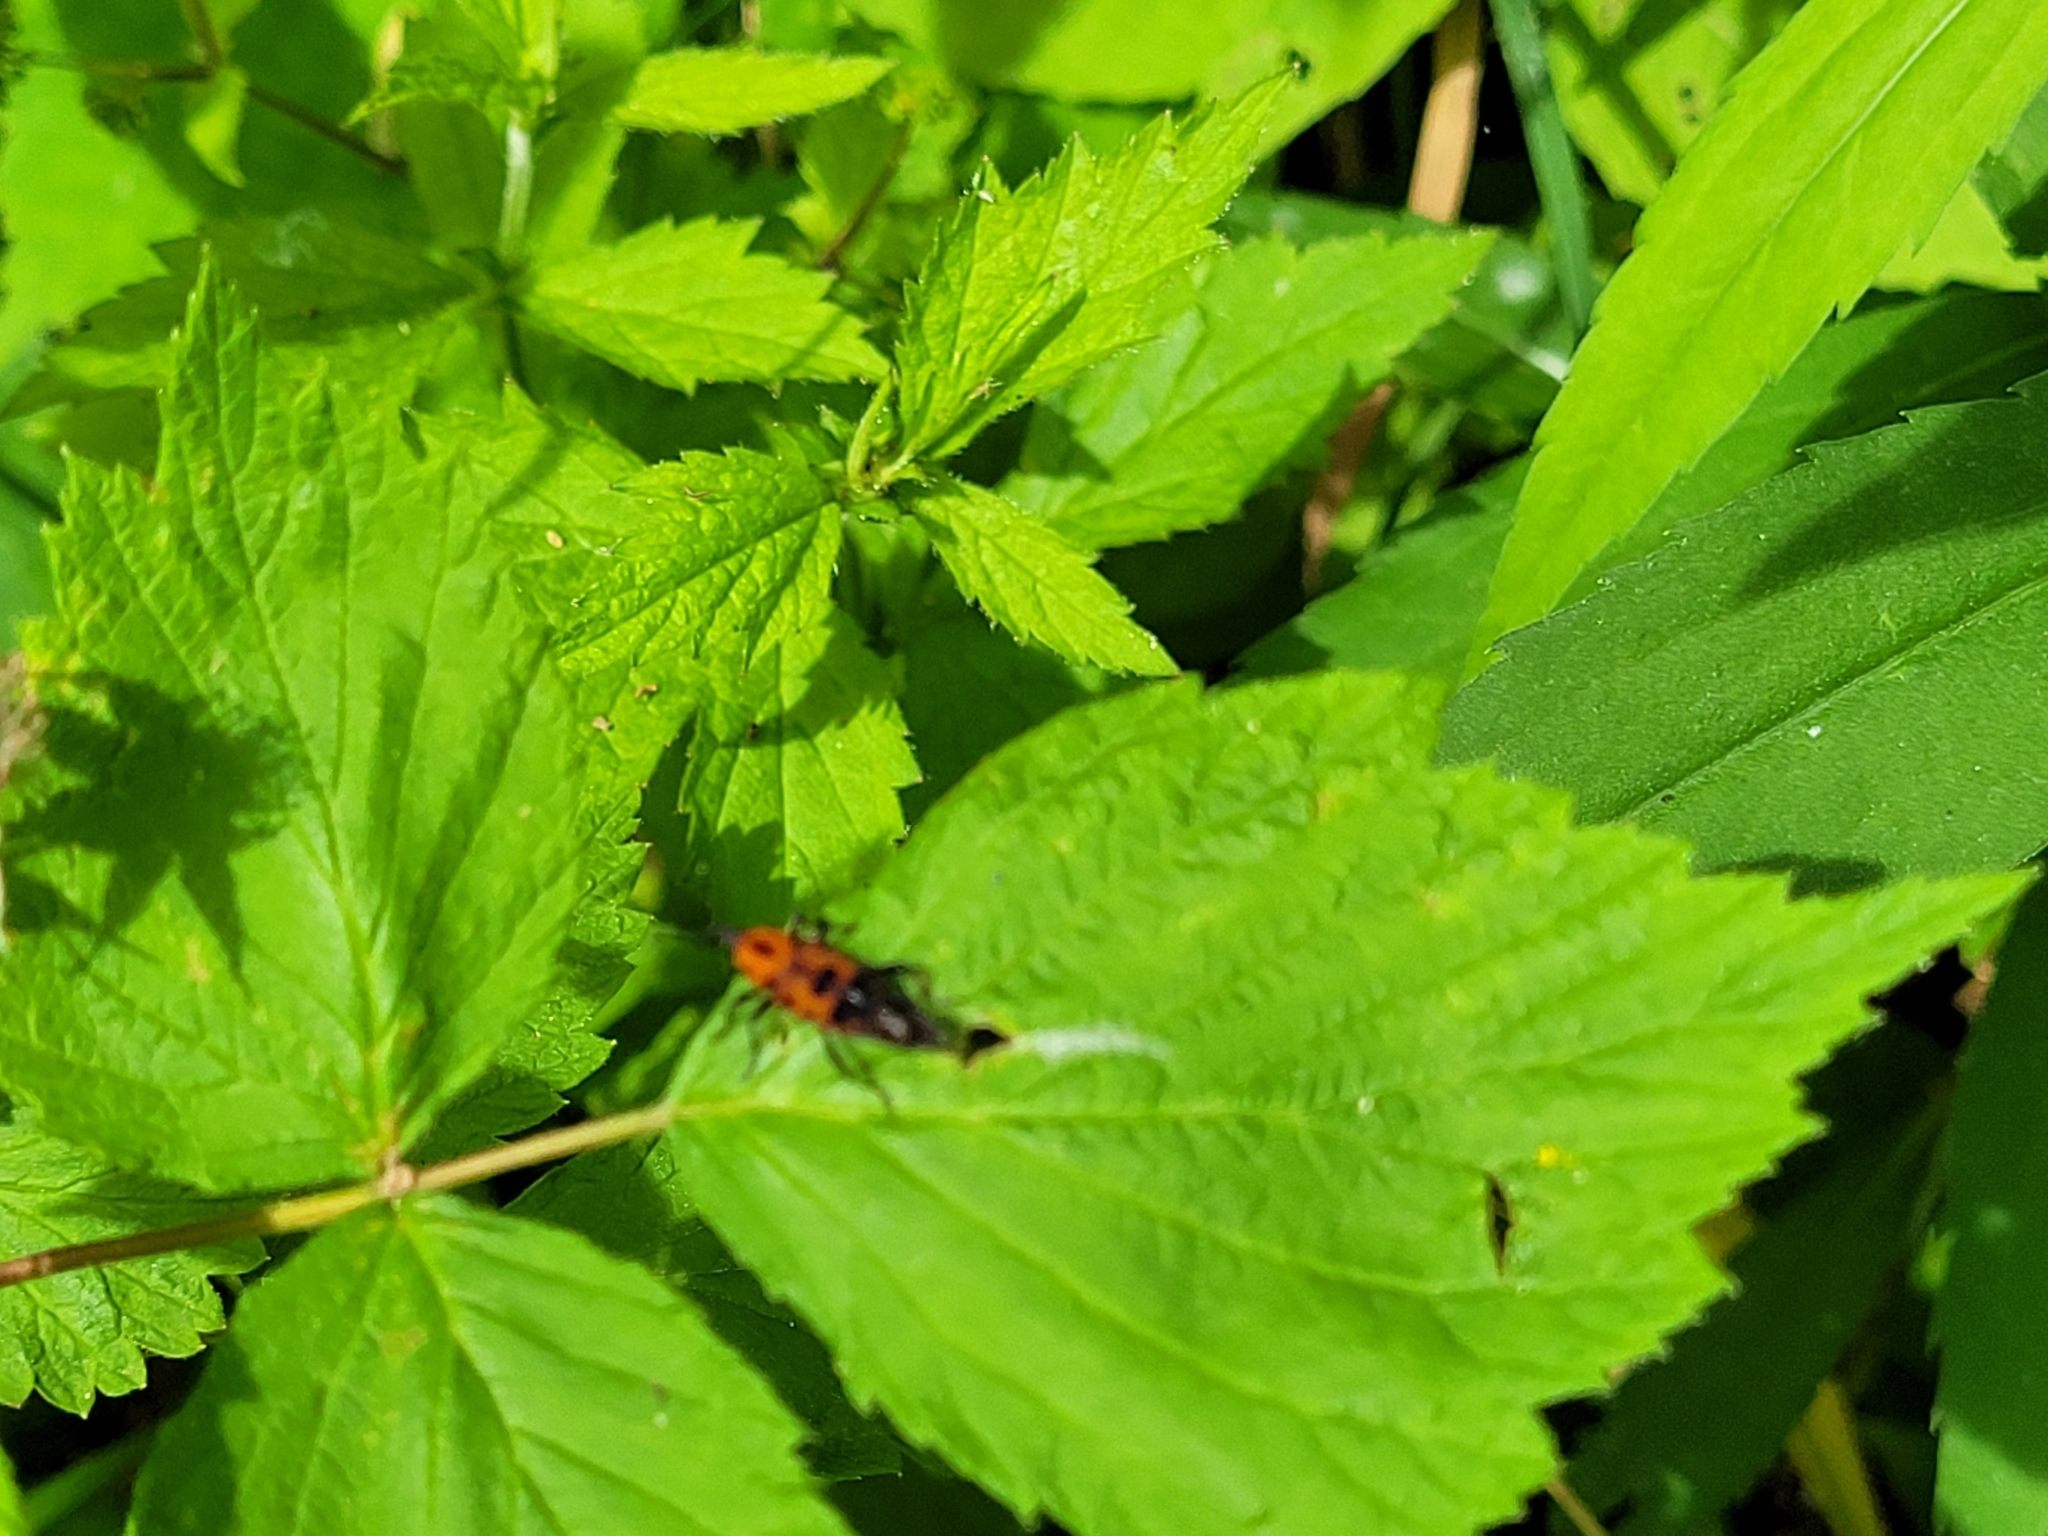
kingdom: Animalia
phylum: Arthropoda
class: Insecta
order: Coleoptera
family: Dryophthoridae
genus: Rhodobaenus
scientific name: Rhodobaenus quinquepunctatus
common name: Cocklebur weevil
